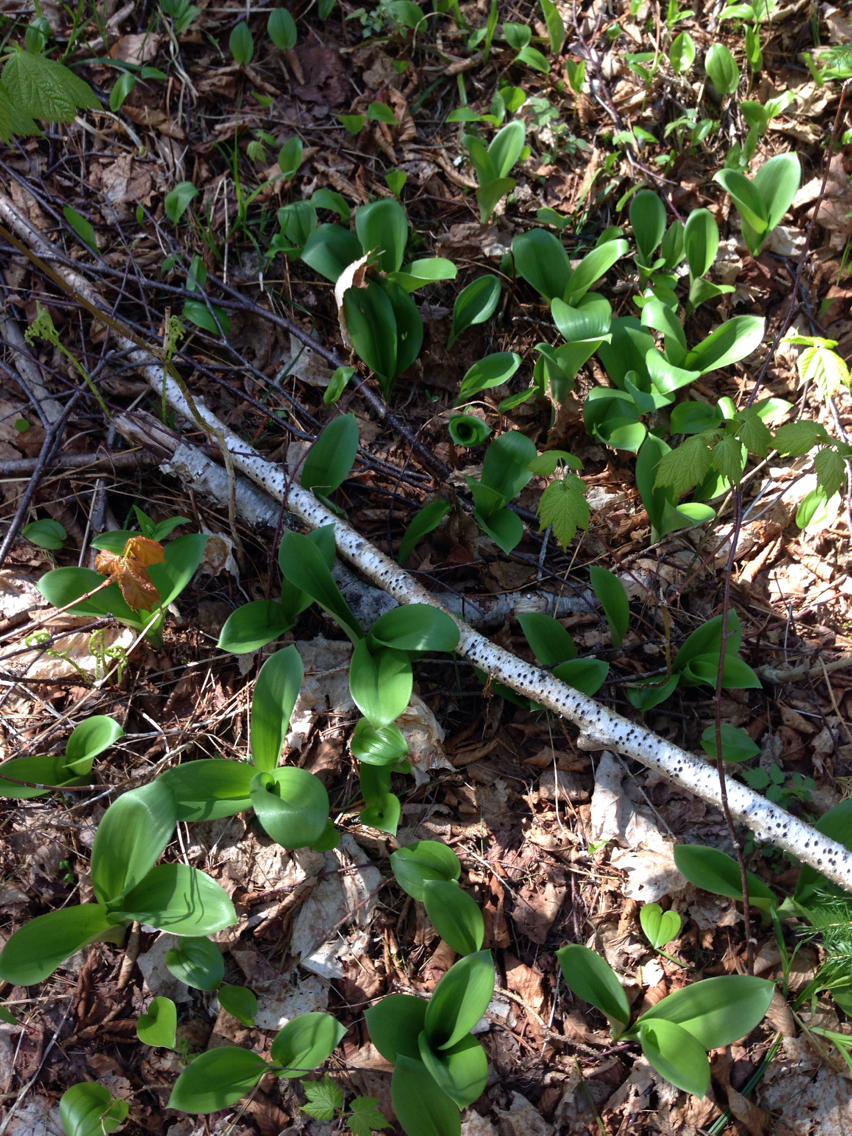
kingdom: Plantae
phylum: Tracheophyta
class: Liliopsida
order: Liliales
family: Liliaceae
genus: Clintonia
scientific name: Clintonia borealis
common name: Yellow clintonia
